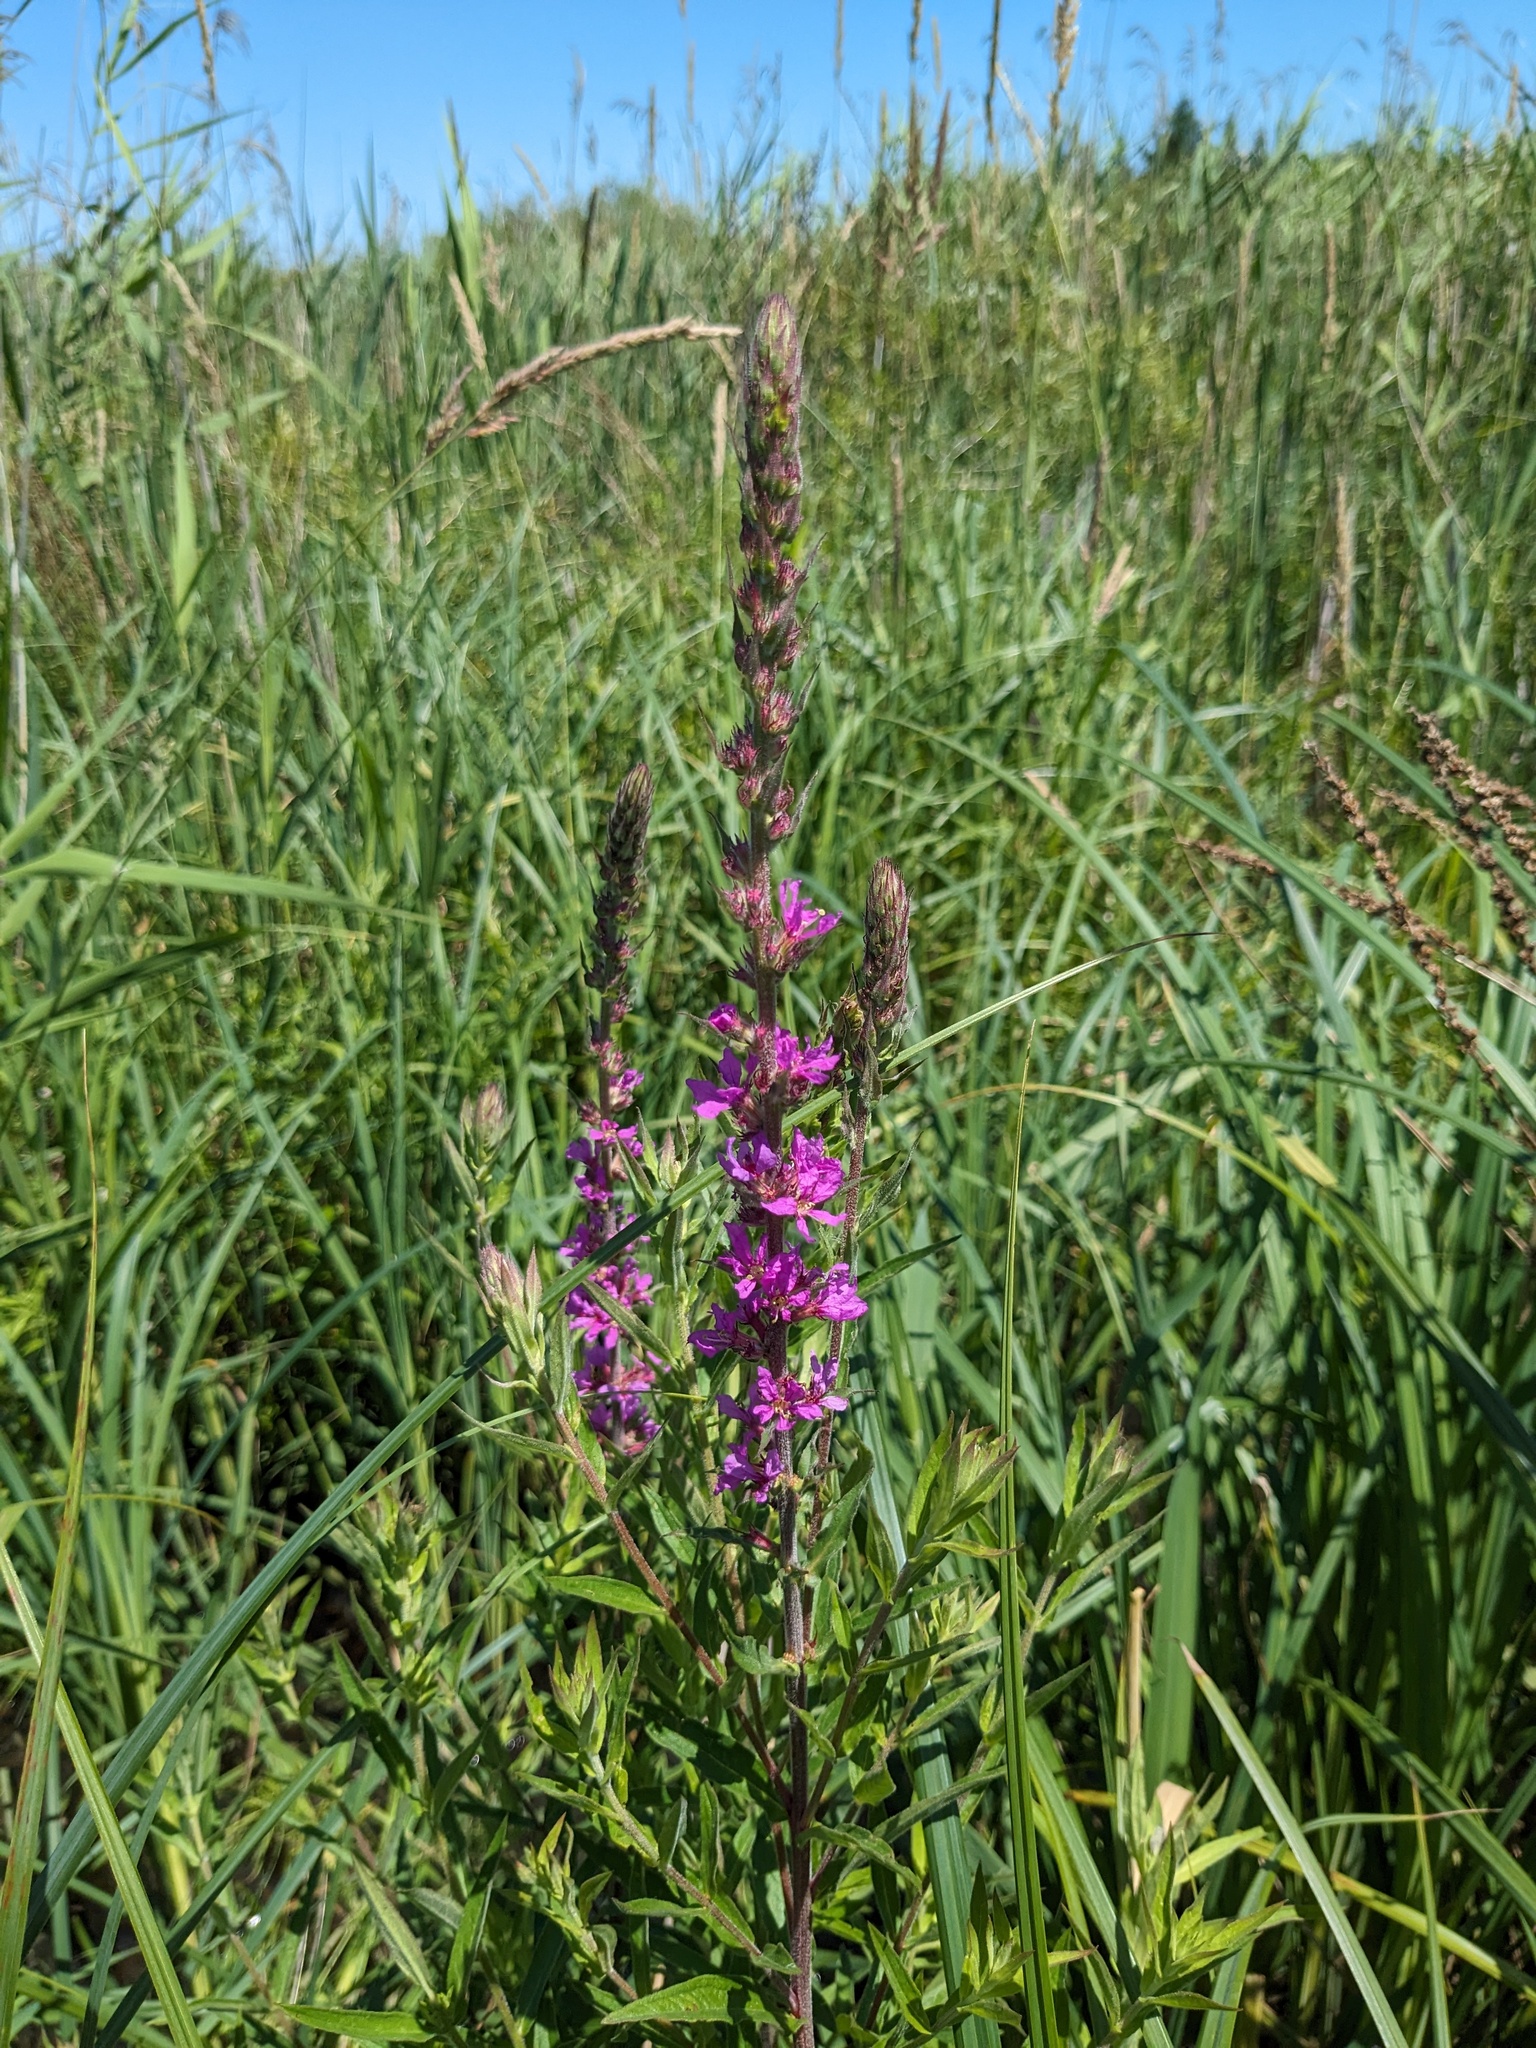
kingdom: Plantae
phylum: Tracheophyta
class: Magnoliopsida
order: Myrtales
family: Lythraceae
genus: Lythrum
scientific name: Lythrum salicaria
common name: Purple loosestrife
